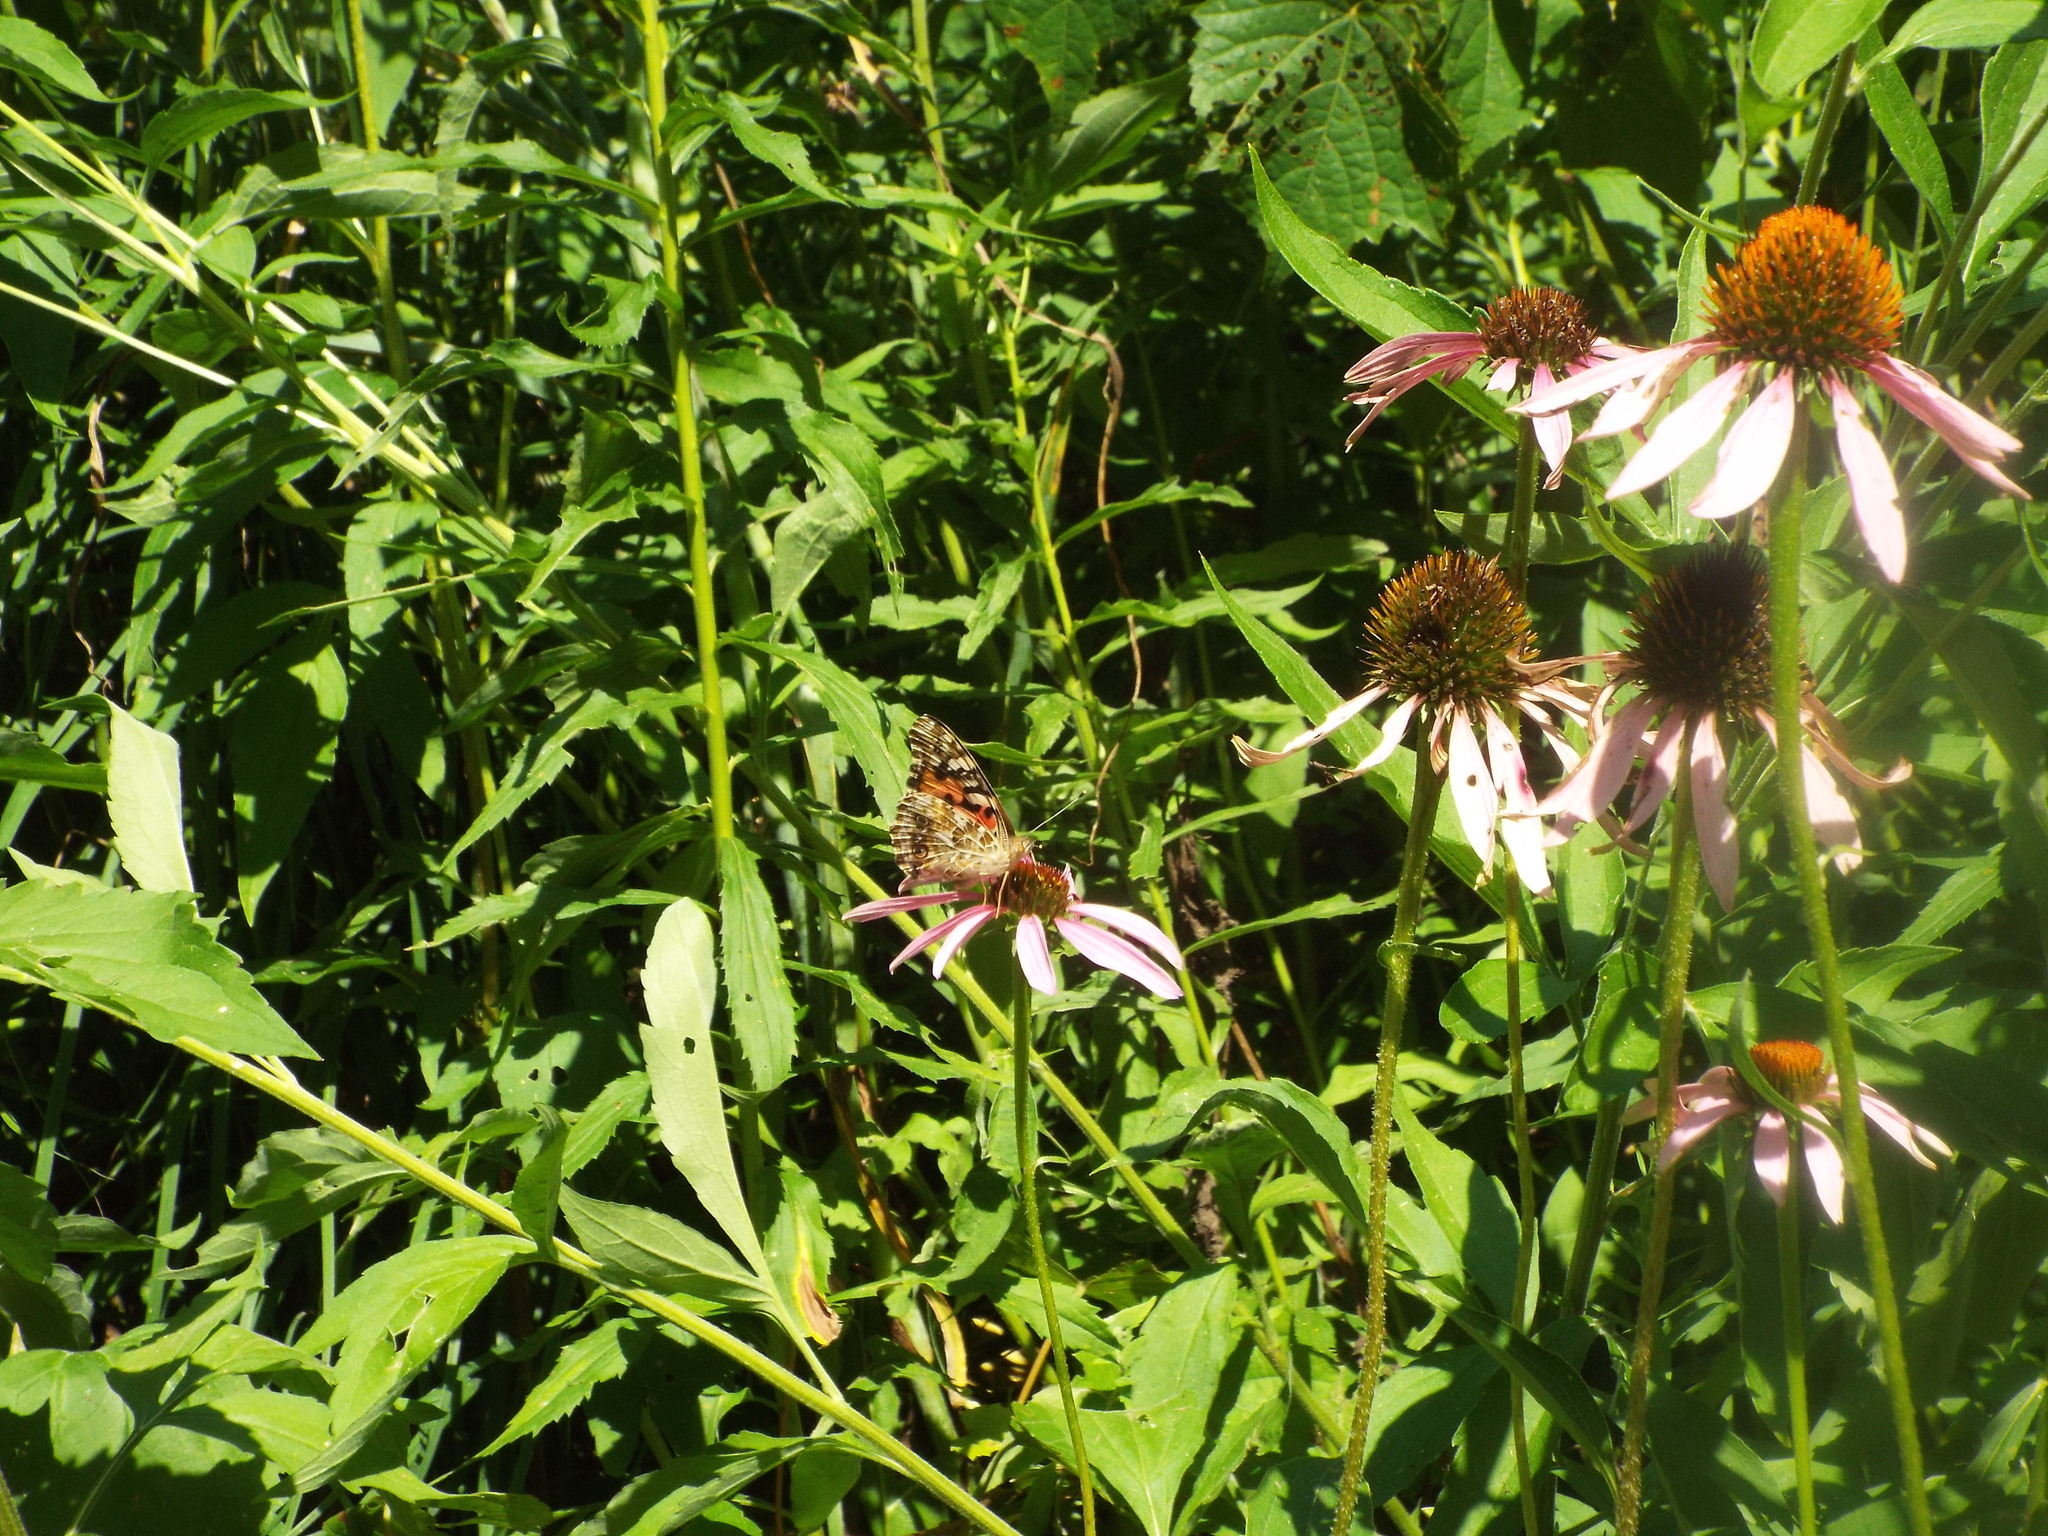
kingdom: Animalia
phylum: Arthropoda
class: Insecta
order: Lepidoptera
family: Nymphalidae
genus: Vanessa
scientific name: Vanessa cardui
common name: Painted lady
